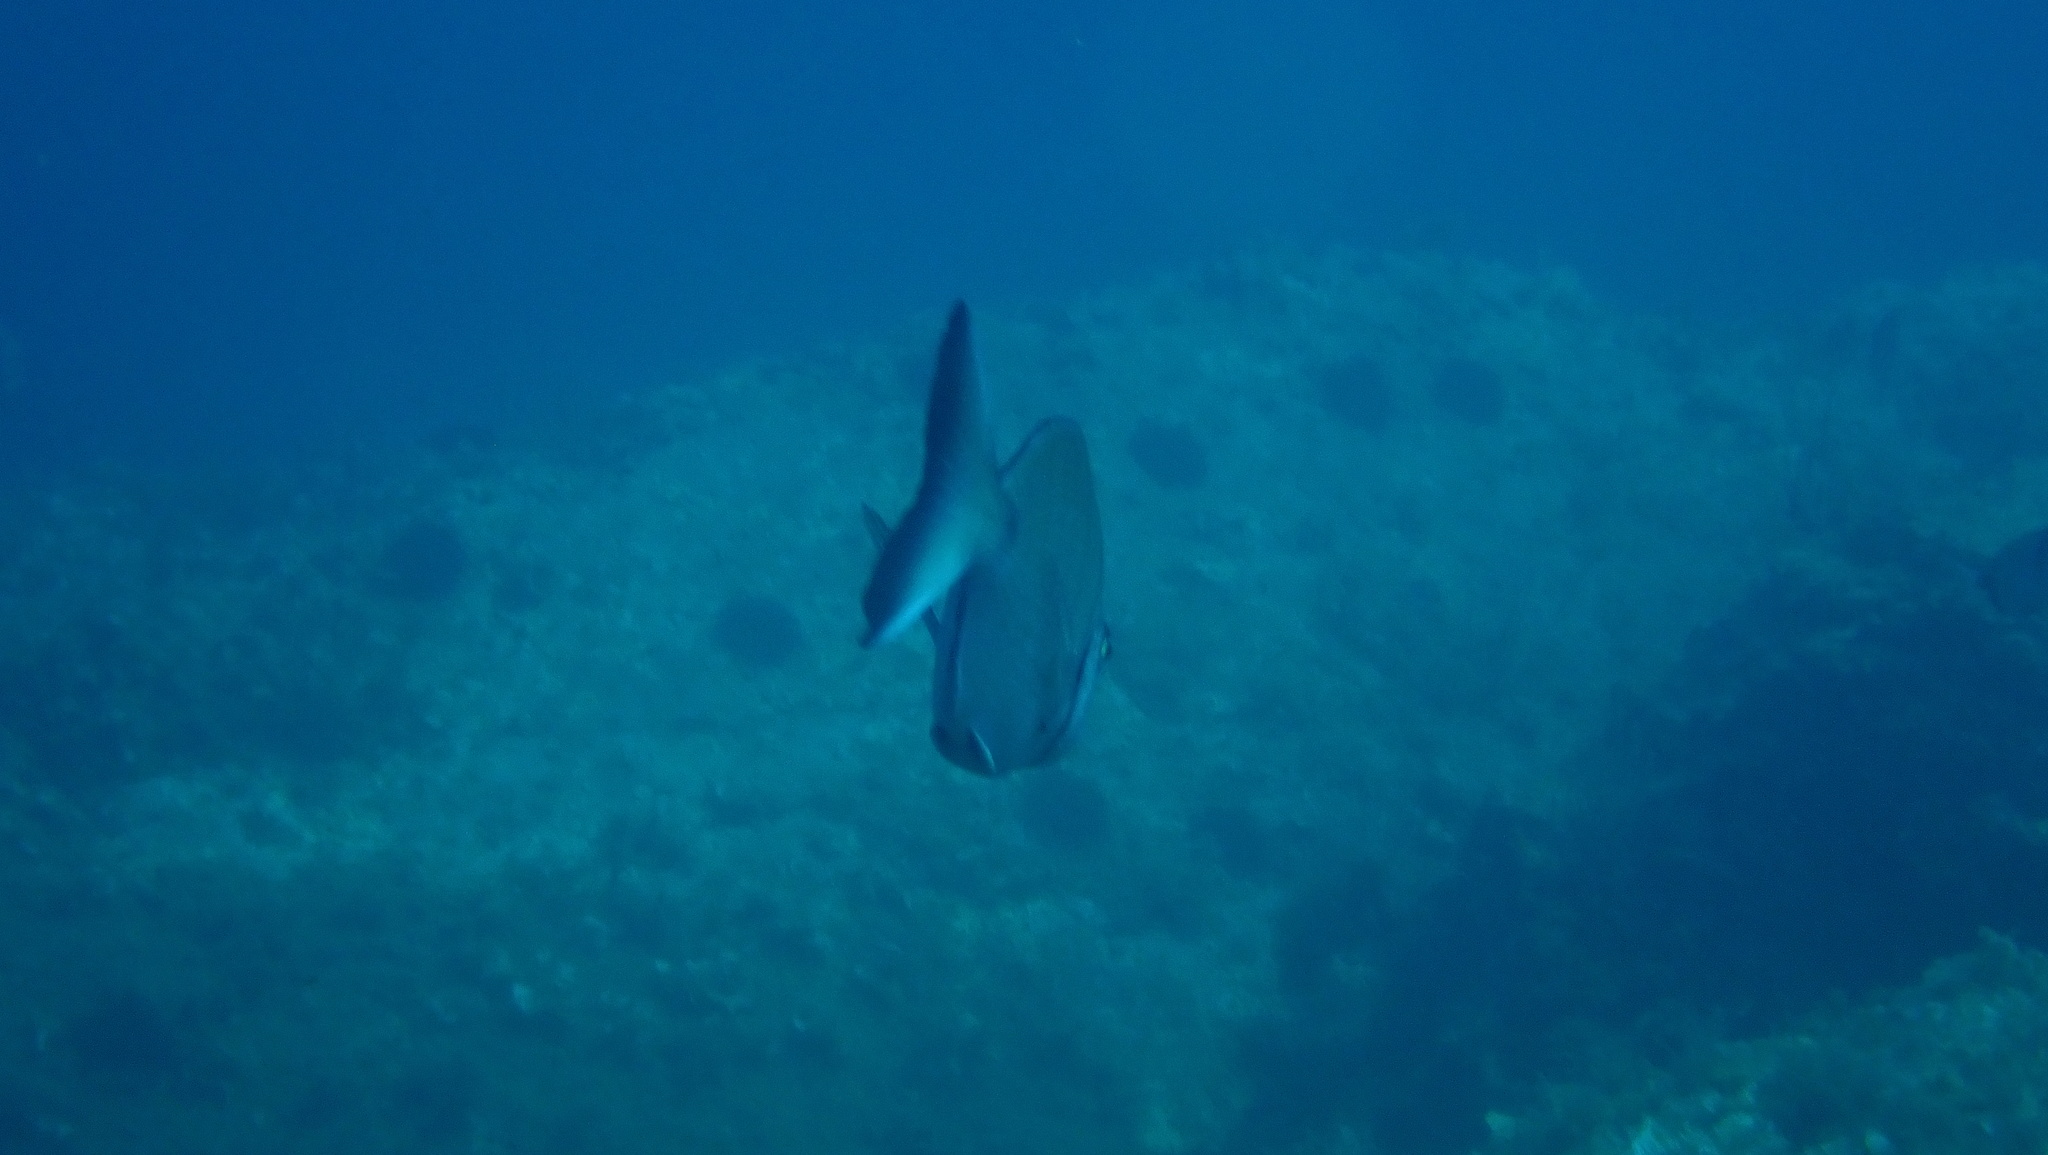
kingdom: Animalia
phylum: Chordata
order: Perciformes
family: Sparidae
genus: Diplodus
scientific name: Diplodus sargus
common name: White seabream
